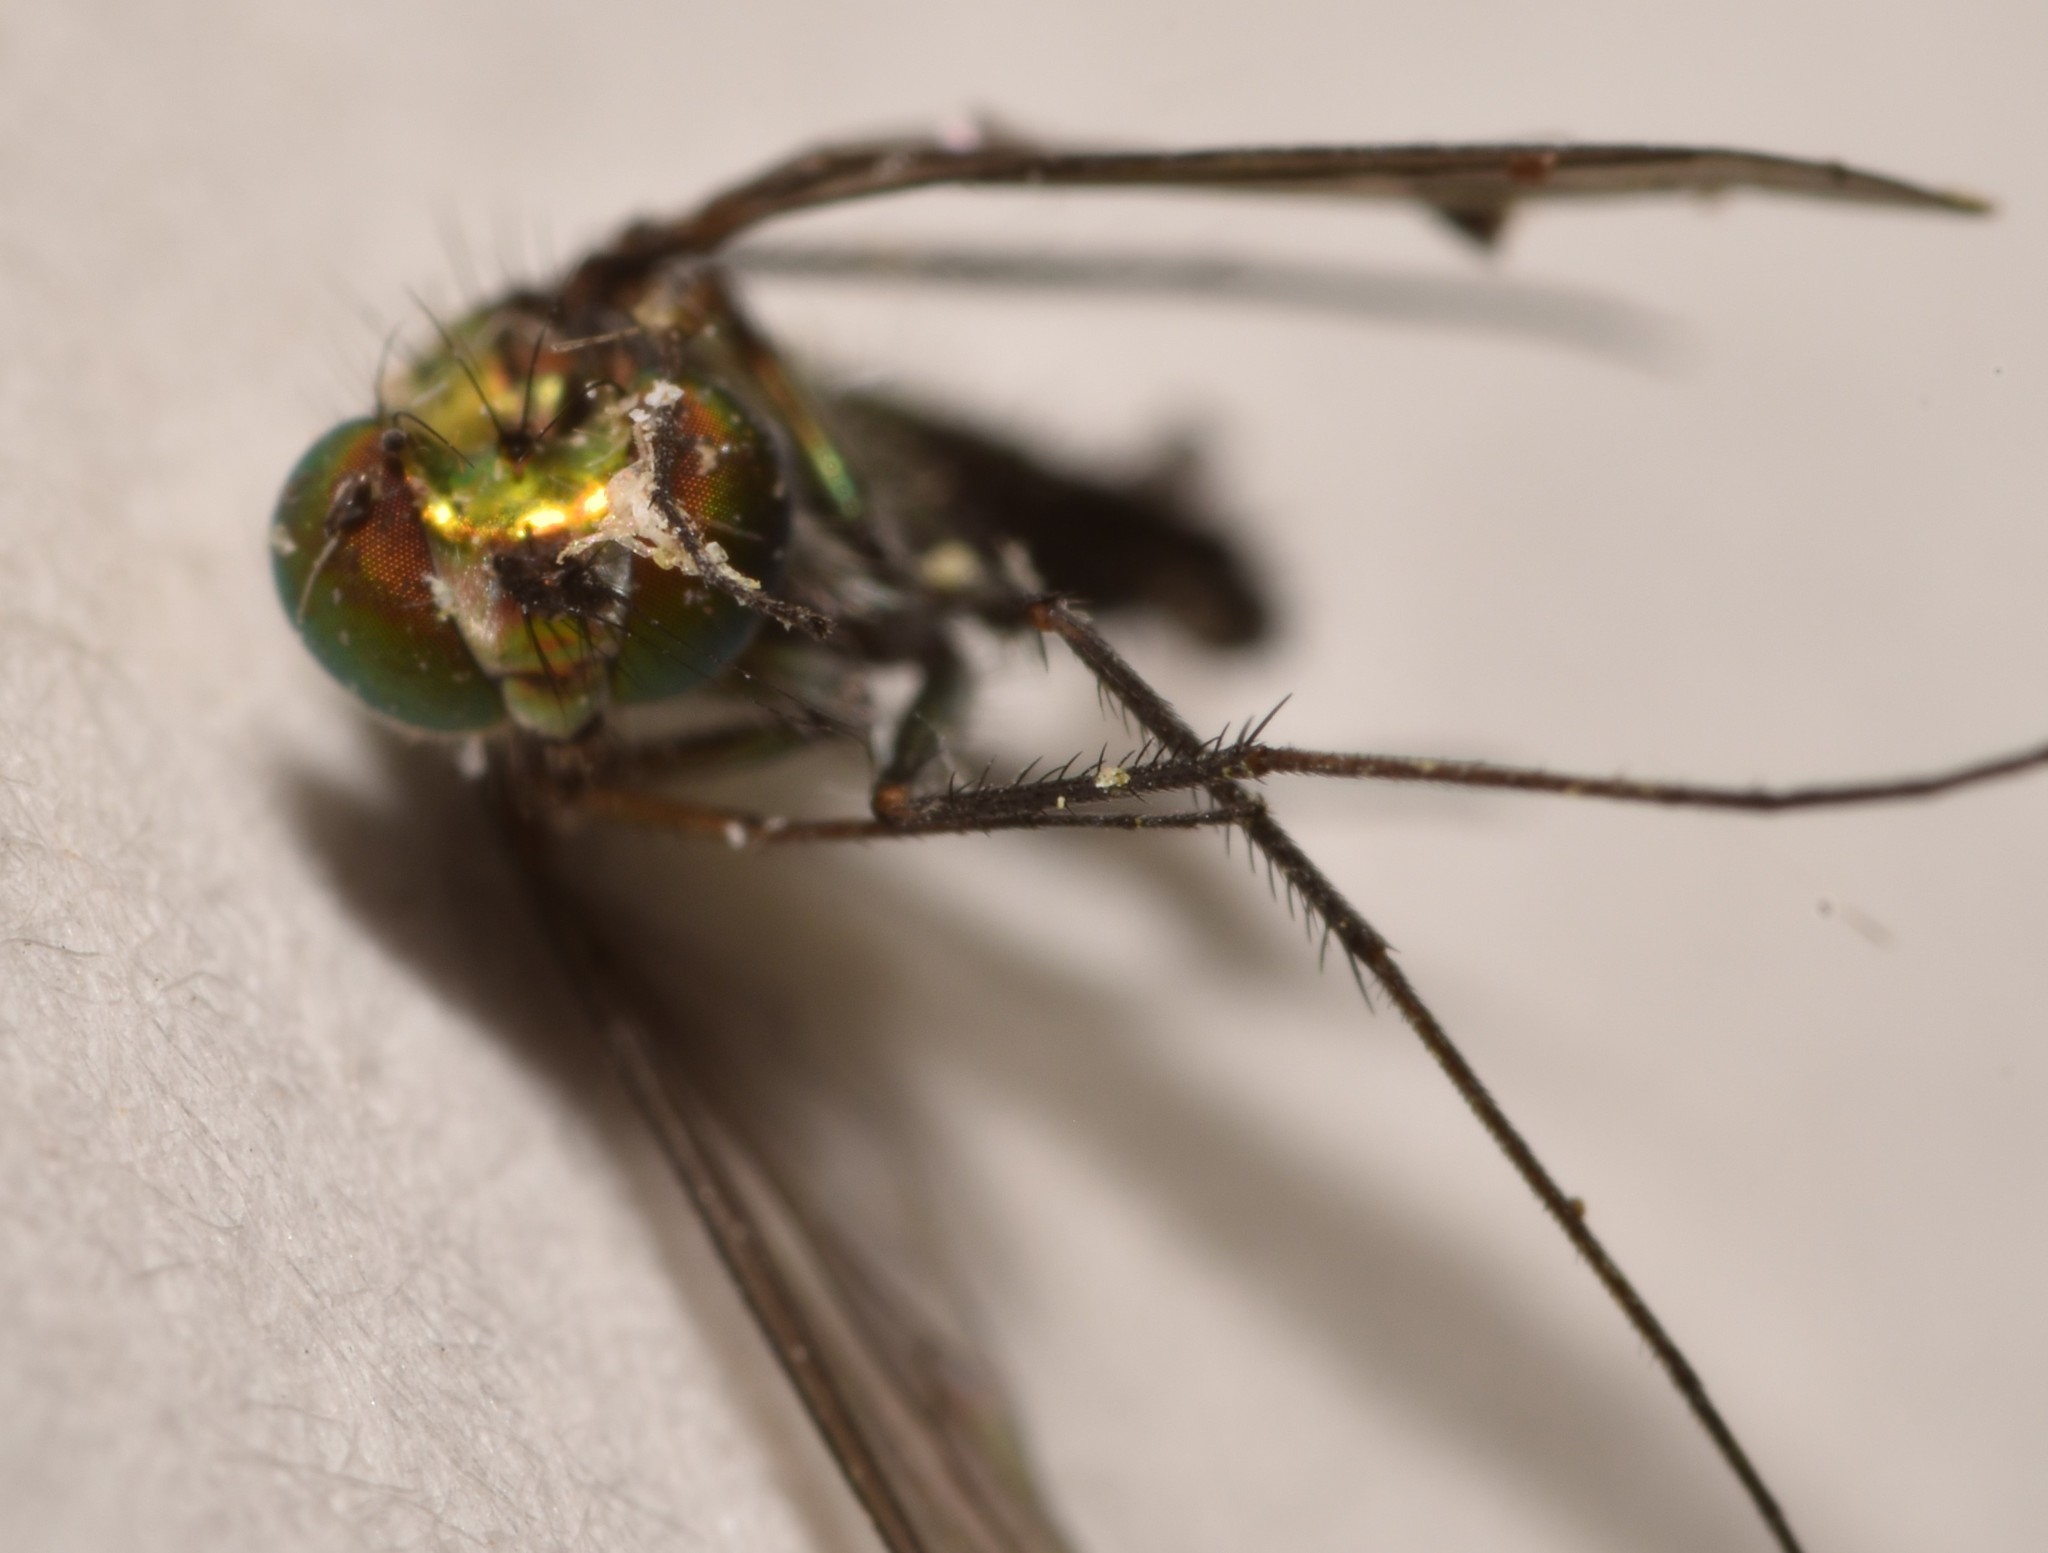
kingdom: Animalia
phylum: Arthropoda
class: Insecta
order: Diptera
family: Dolichopodidae
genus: Condylostylus
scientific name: Condylostylus longicornis
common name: Long-legged fly
